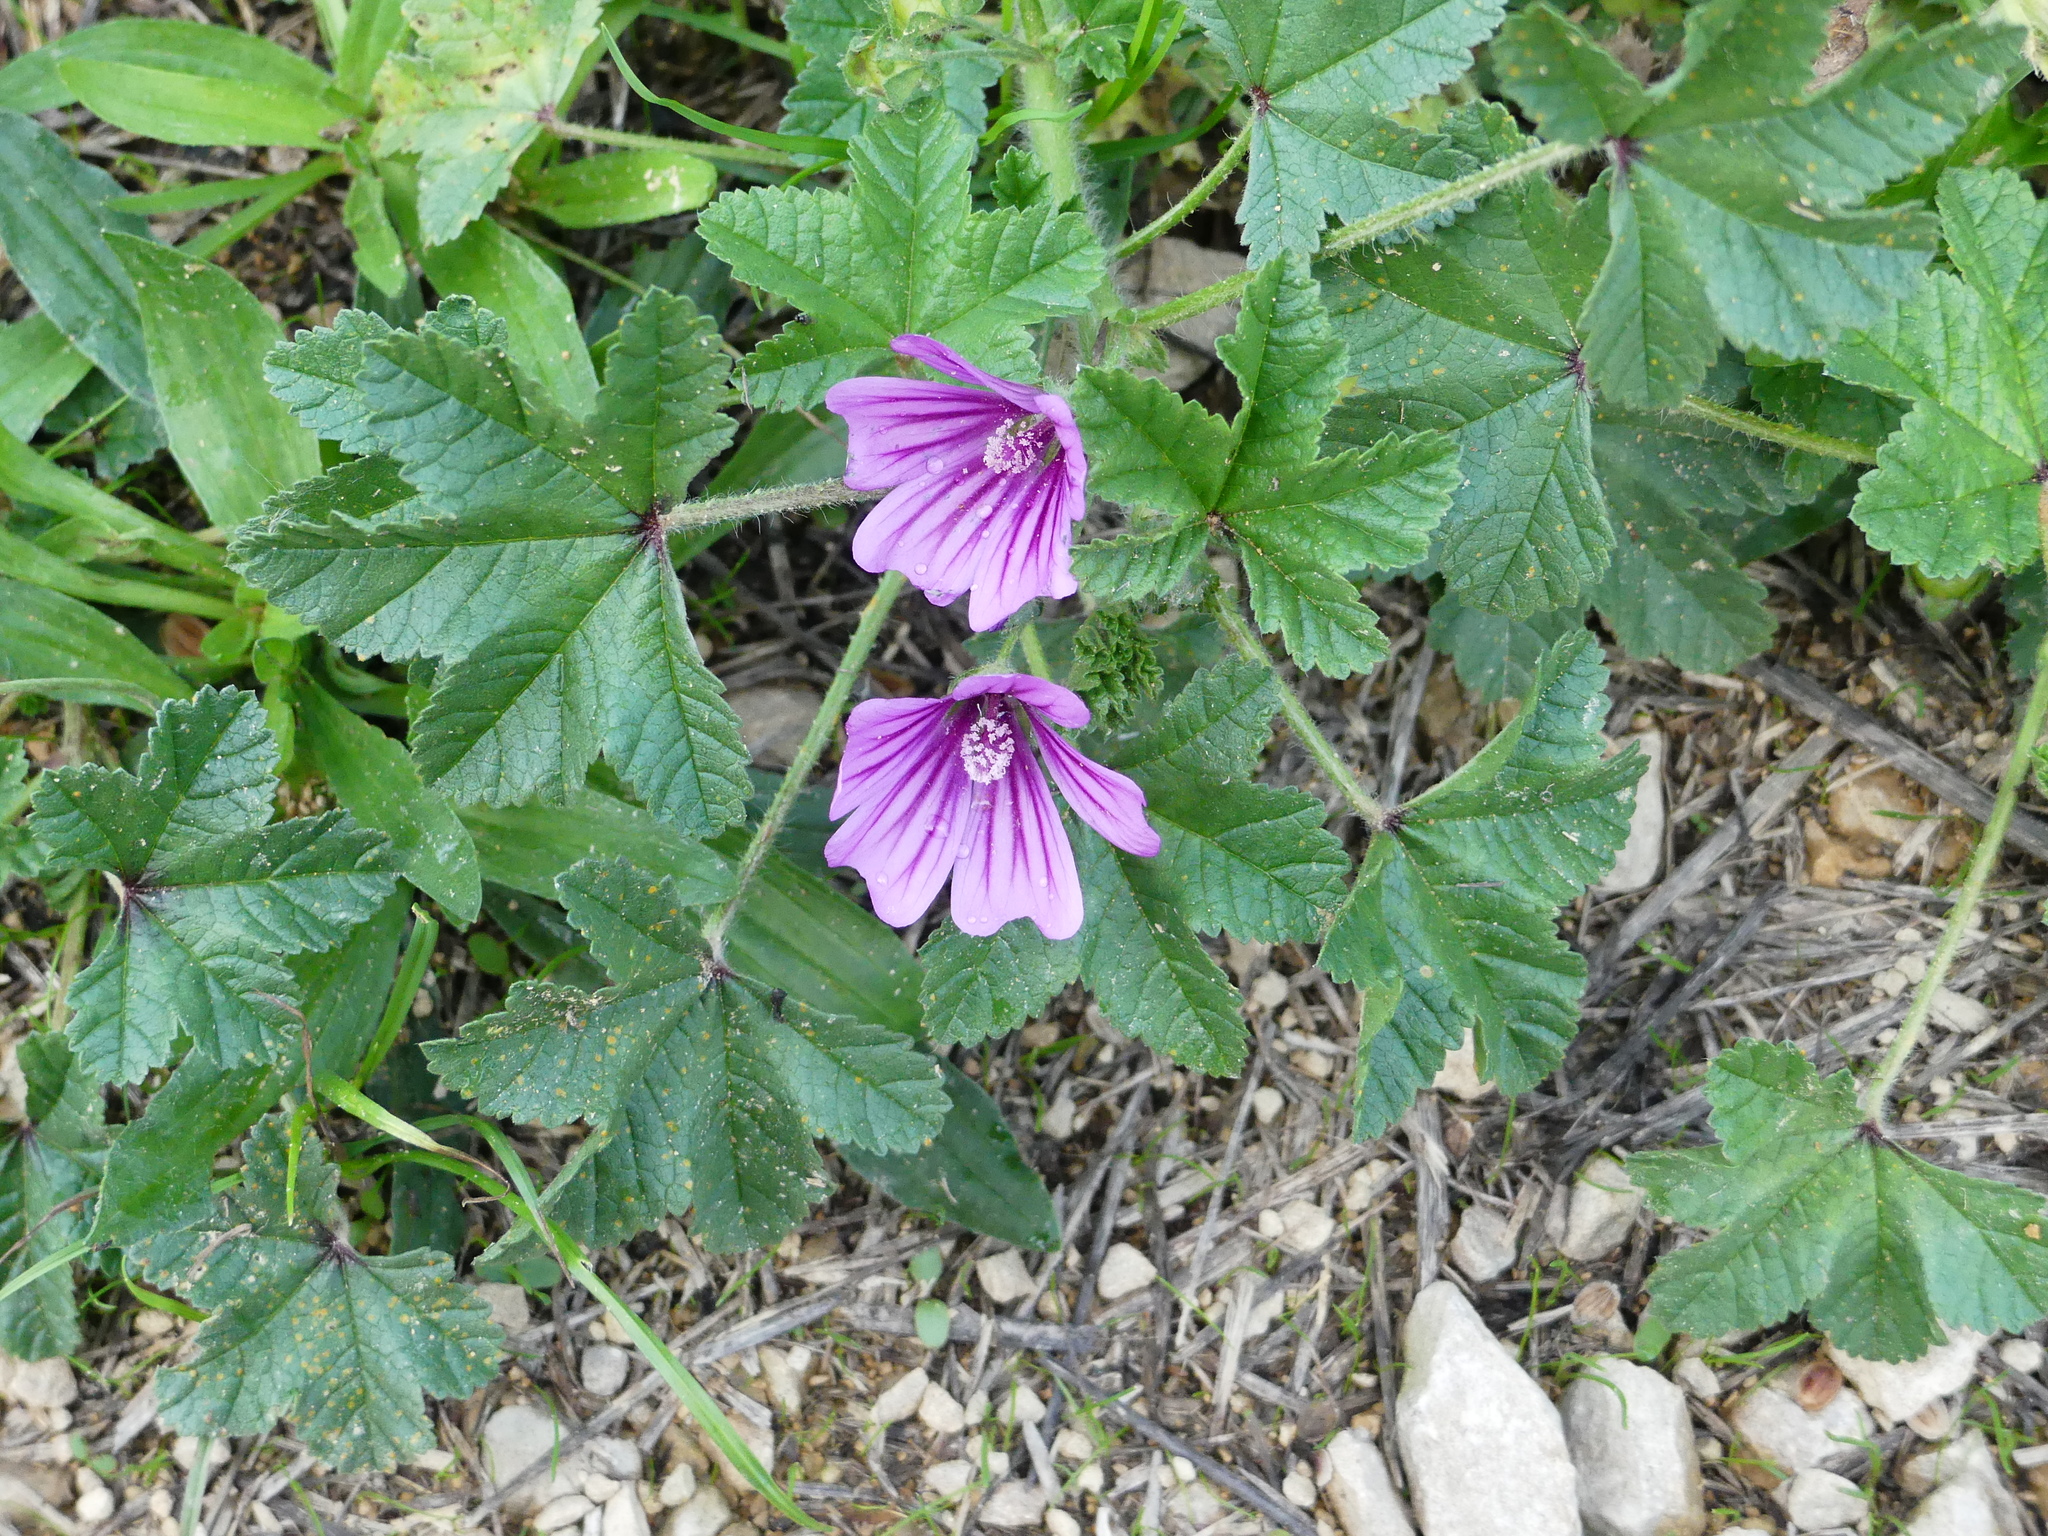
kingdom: Plantae
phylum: Tracheophyta
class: Magnoliopsida
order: Malvales
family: Malvaceae
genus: Malva
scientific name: Malva sylvestris
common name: Common mallow
